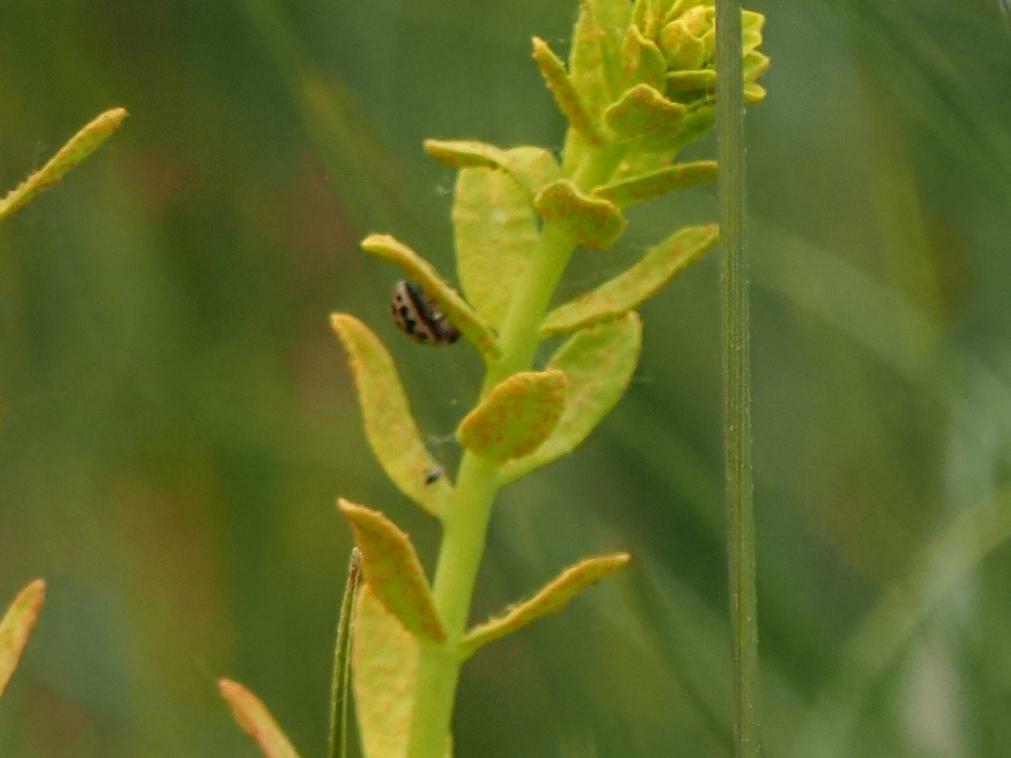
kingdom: Animalia
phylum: Arthropoda
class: Insecta
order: Coleoptera
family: Coccinellidae
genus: Tytthaspis
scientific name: Tytthaspis sedecimpunctata
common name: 16-spot ladybird
